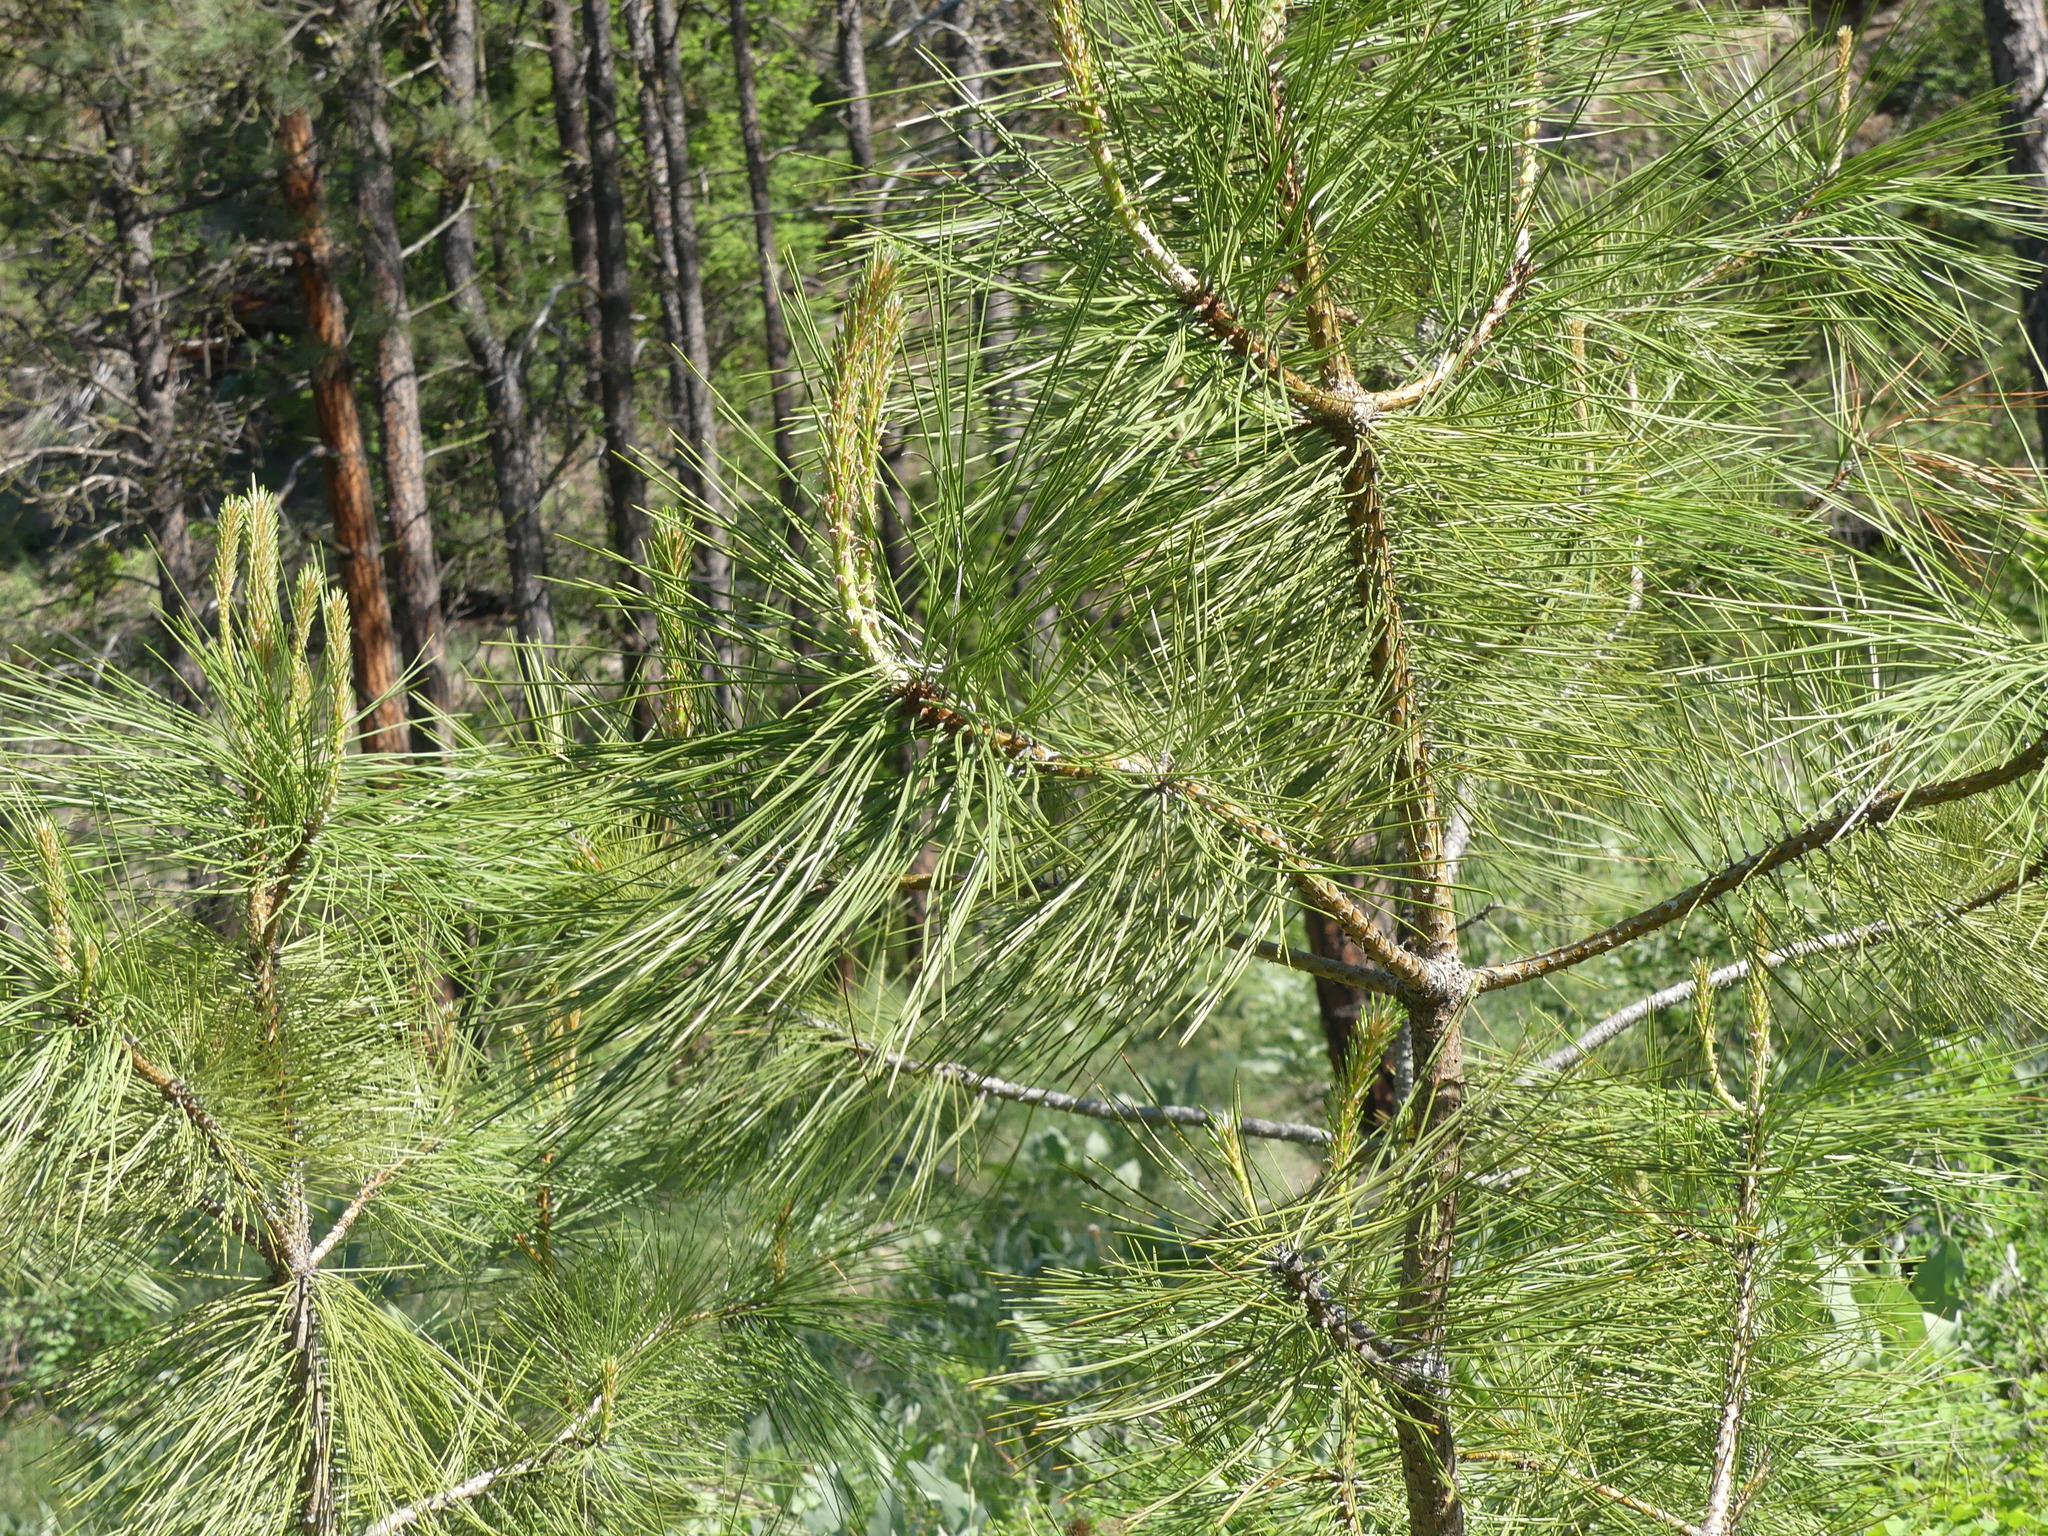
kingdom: Plantae
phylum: Tracheophyta
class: Pinopsida
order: Pinales
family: Pinaceae
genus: Pinus
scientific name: Pinus ponderosa
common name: Western yellow-pine
